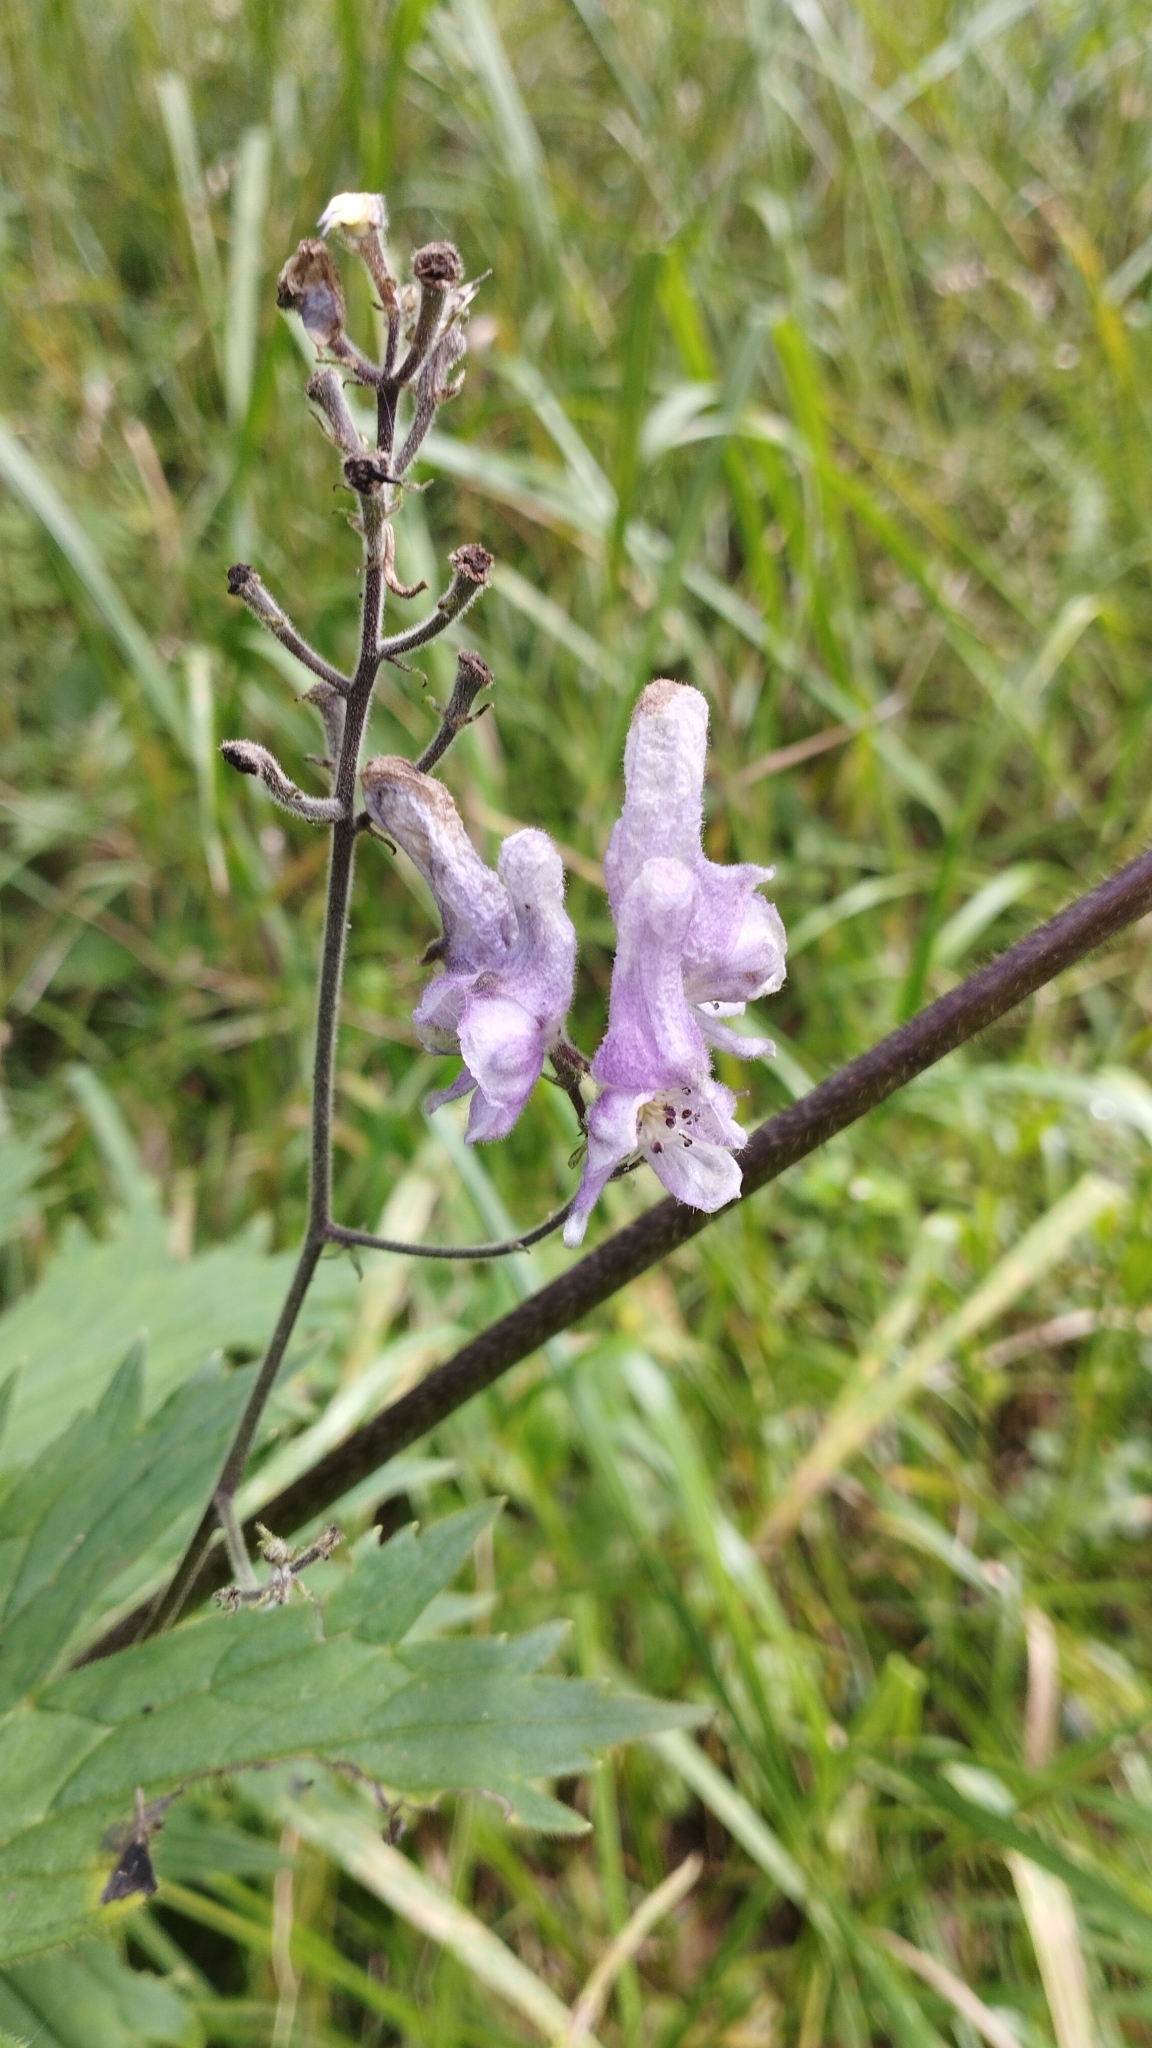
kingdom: Plantae
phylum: Tracheophyta
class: Magnoliopsida
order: Ranunculales
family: Ranunculaceae
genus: Aconitum
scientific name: Aconitum septentrionale
